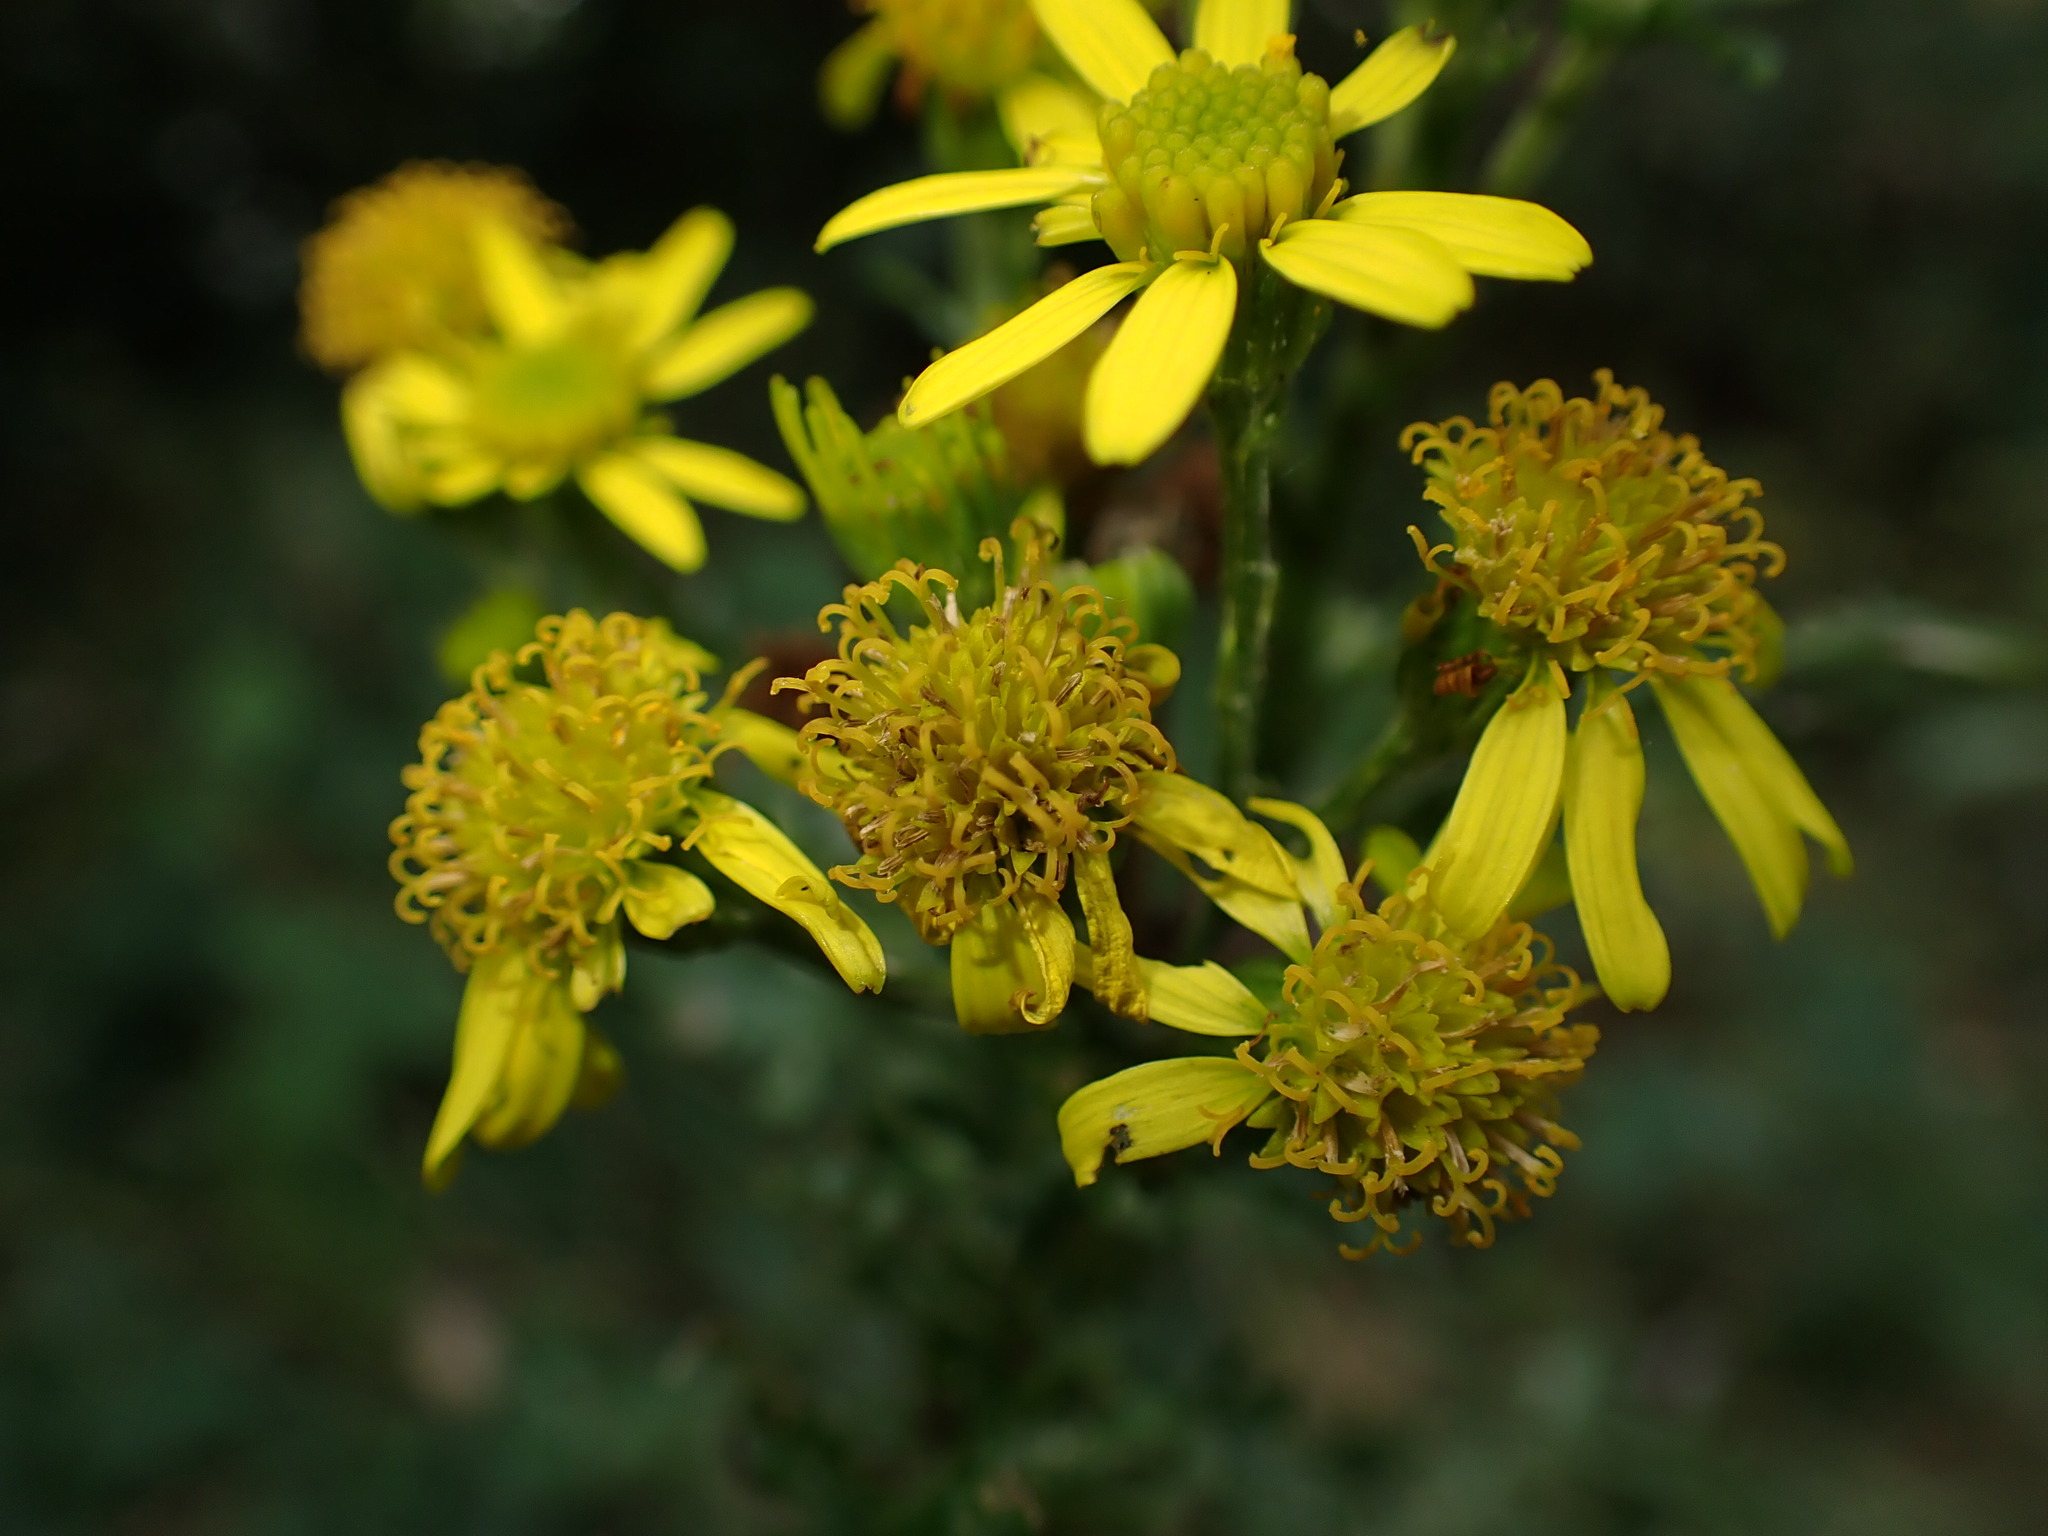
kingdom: Plantae
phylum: Tracheophyta
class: Magnoliopsida
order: Asterales
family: Asteraceae
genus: Jacobaea
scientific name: Jacobaea vulgaris
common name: Stinking willie
